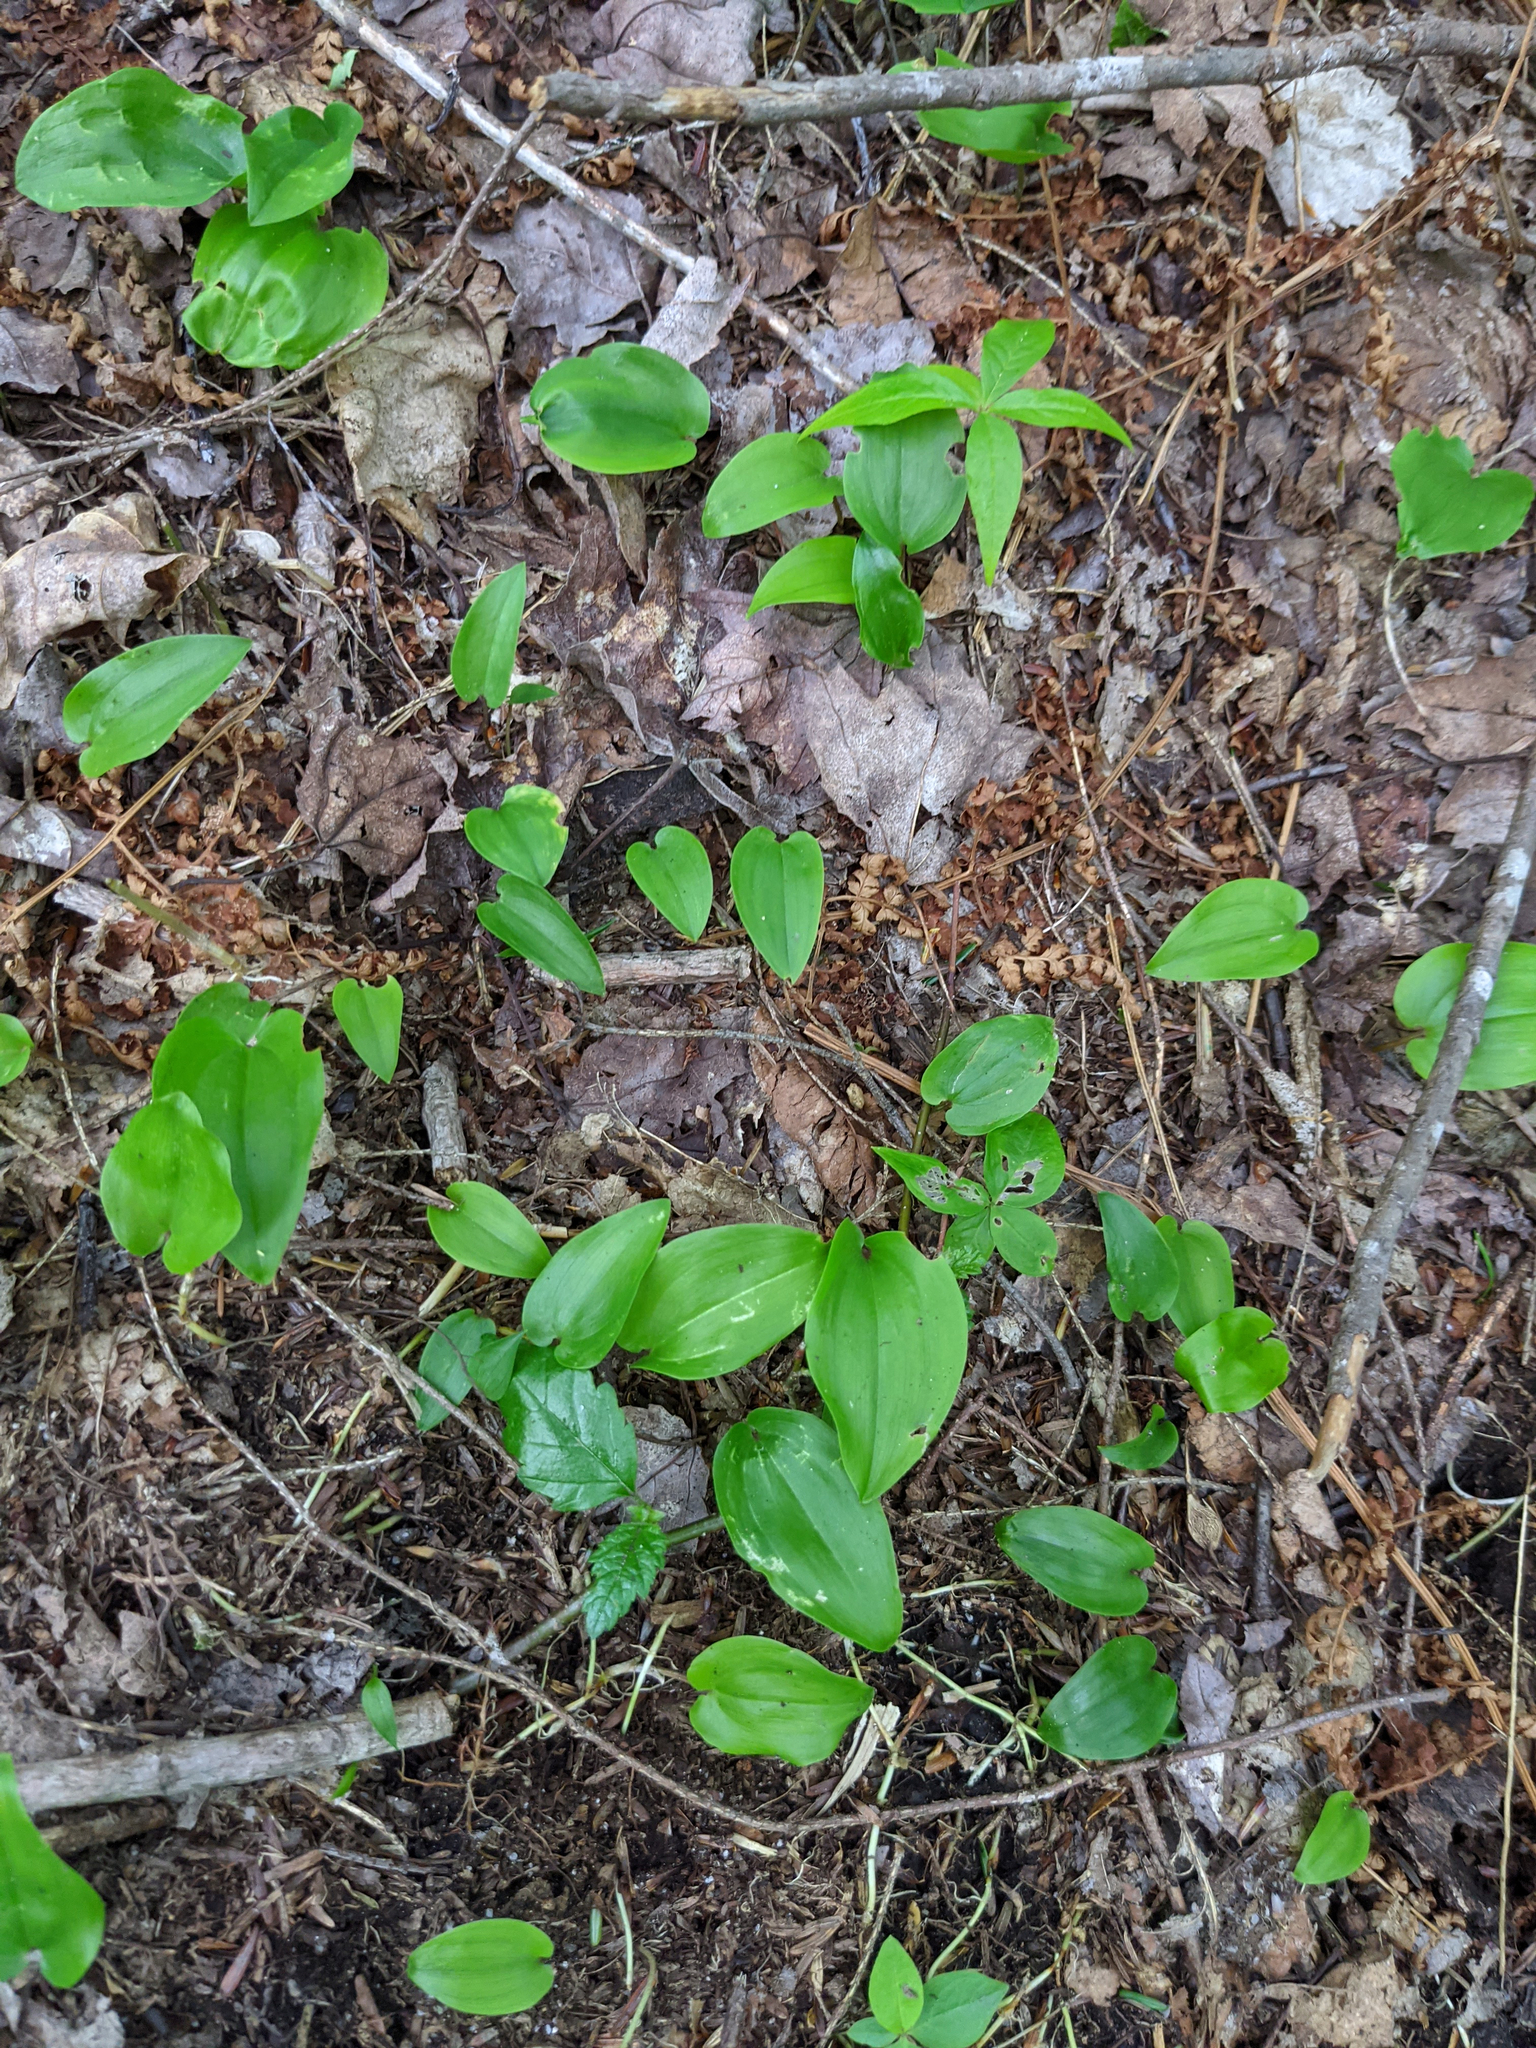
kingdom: Plantae
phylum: Tracheophyta
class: Liliopsida
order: Asparagales
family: Asparagaceae
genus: Maianthemum
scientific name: Maianthemum canadense
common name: False lily-of-the-valley
